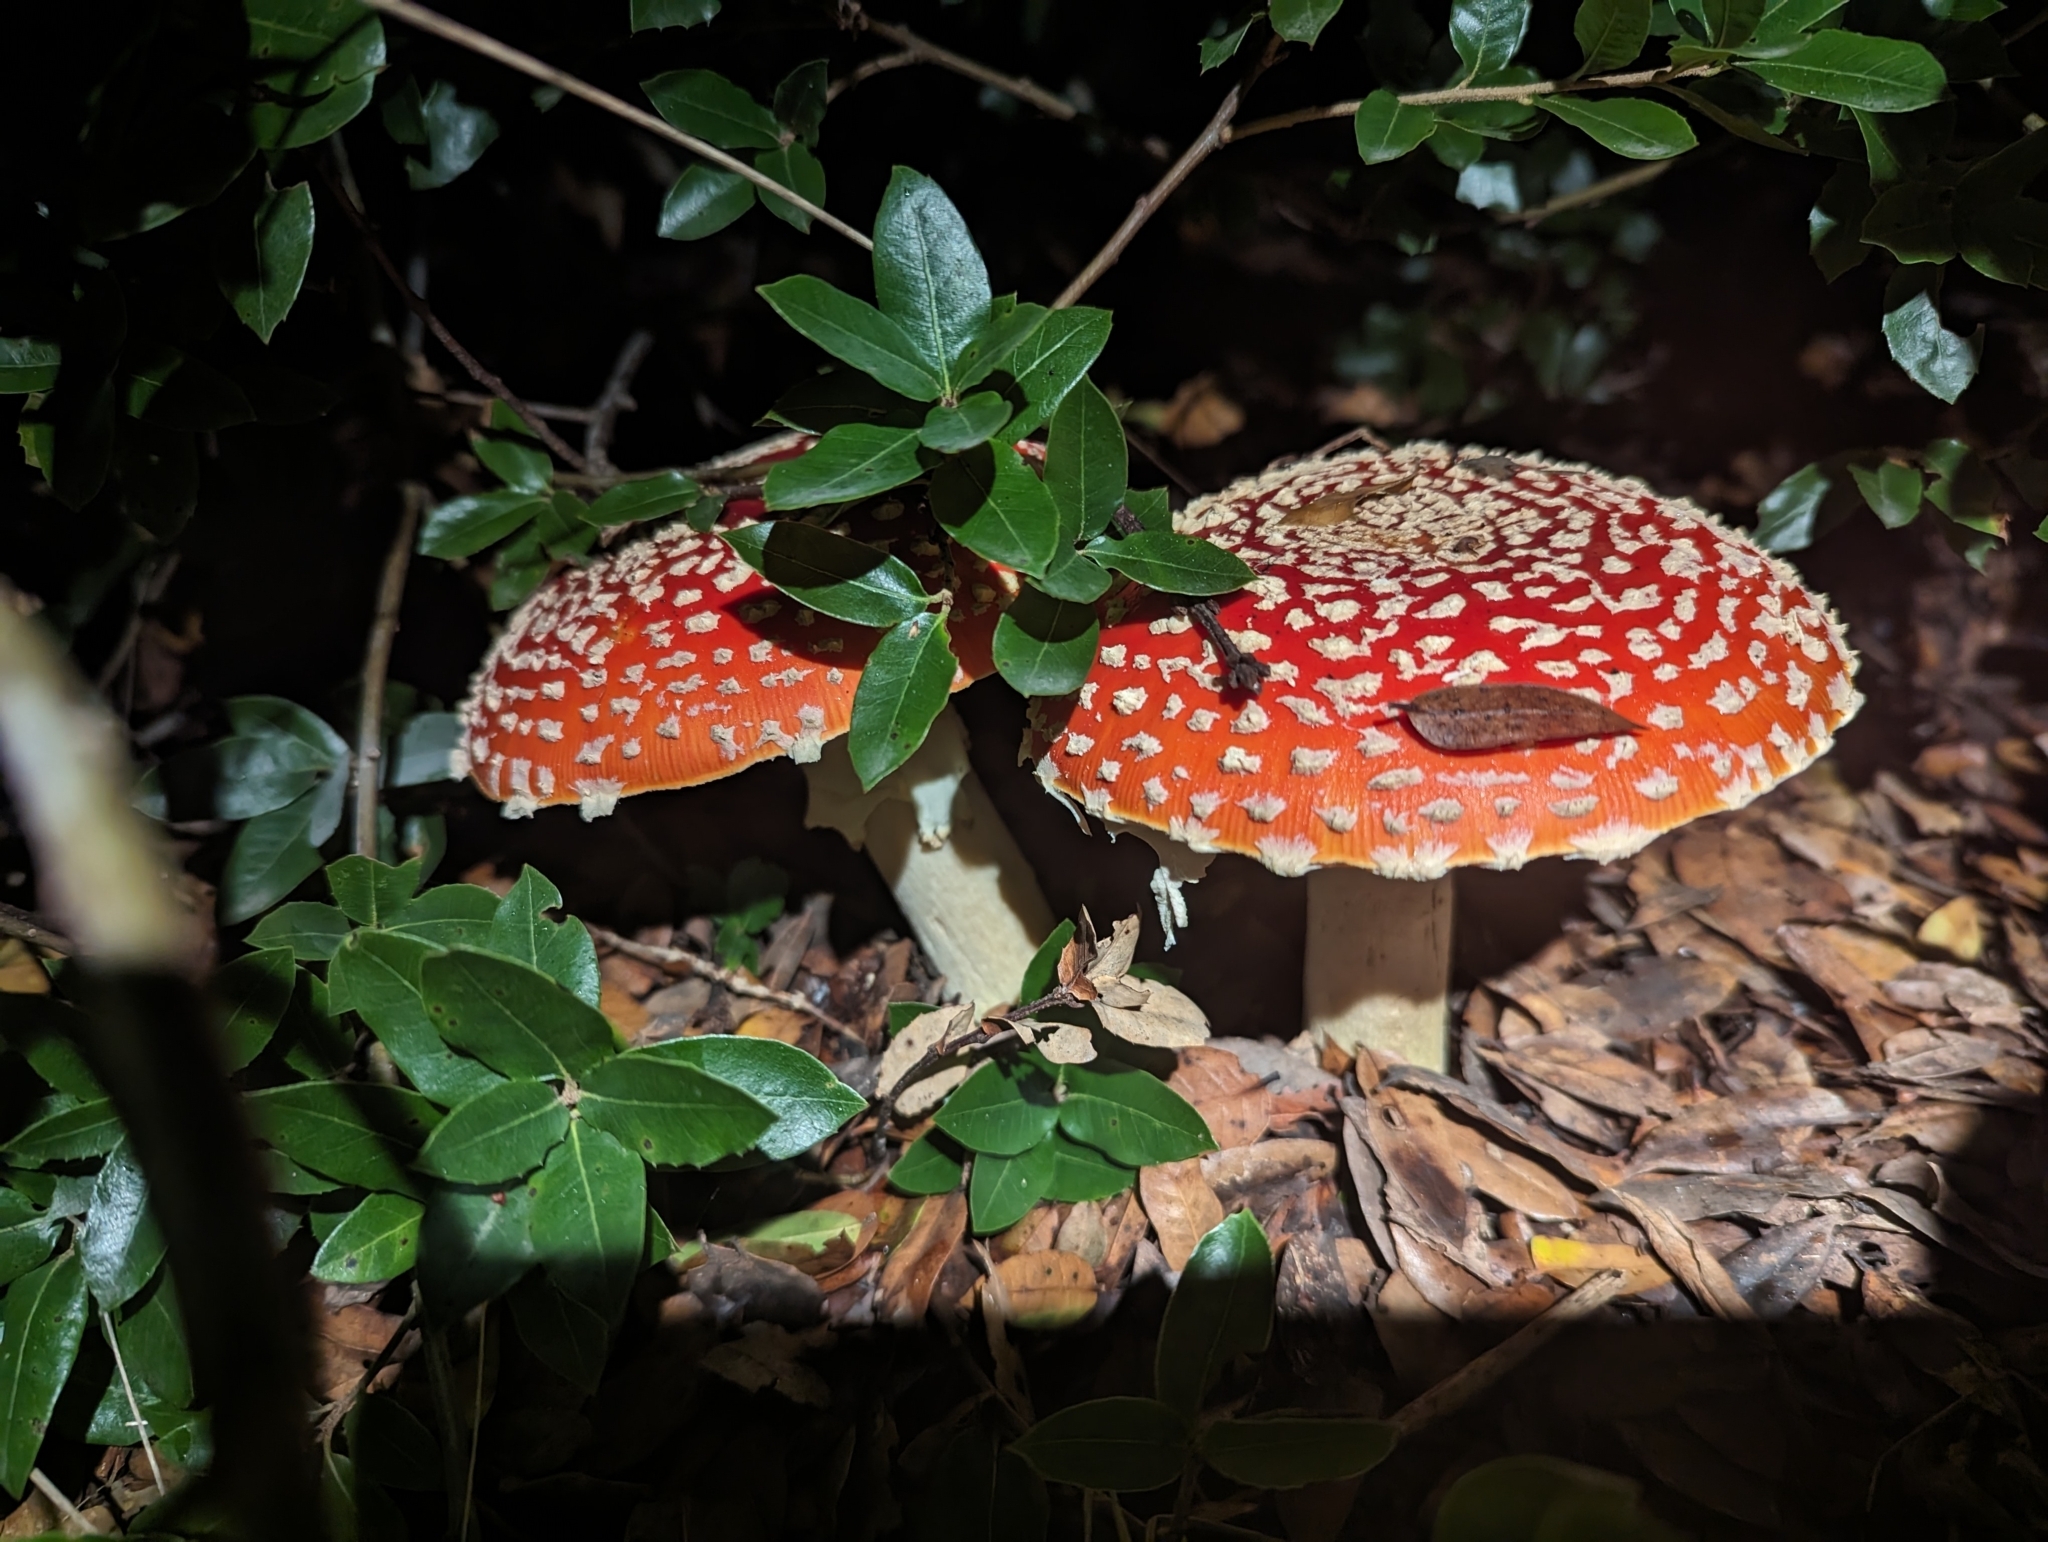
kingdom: Fungi
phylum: Basidiomycota
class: Agaricomycetes
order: Agaricales
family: Amanitaceae
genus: Amanita
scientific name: Amanita muscaria
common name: Fly agaric
